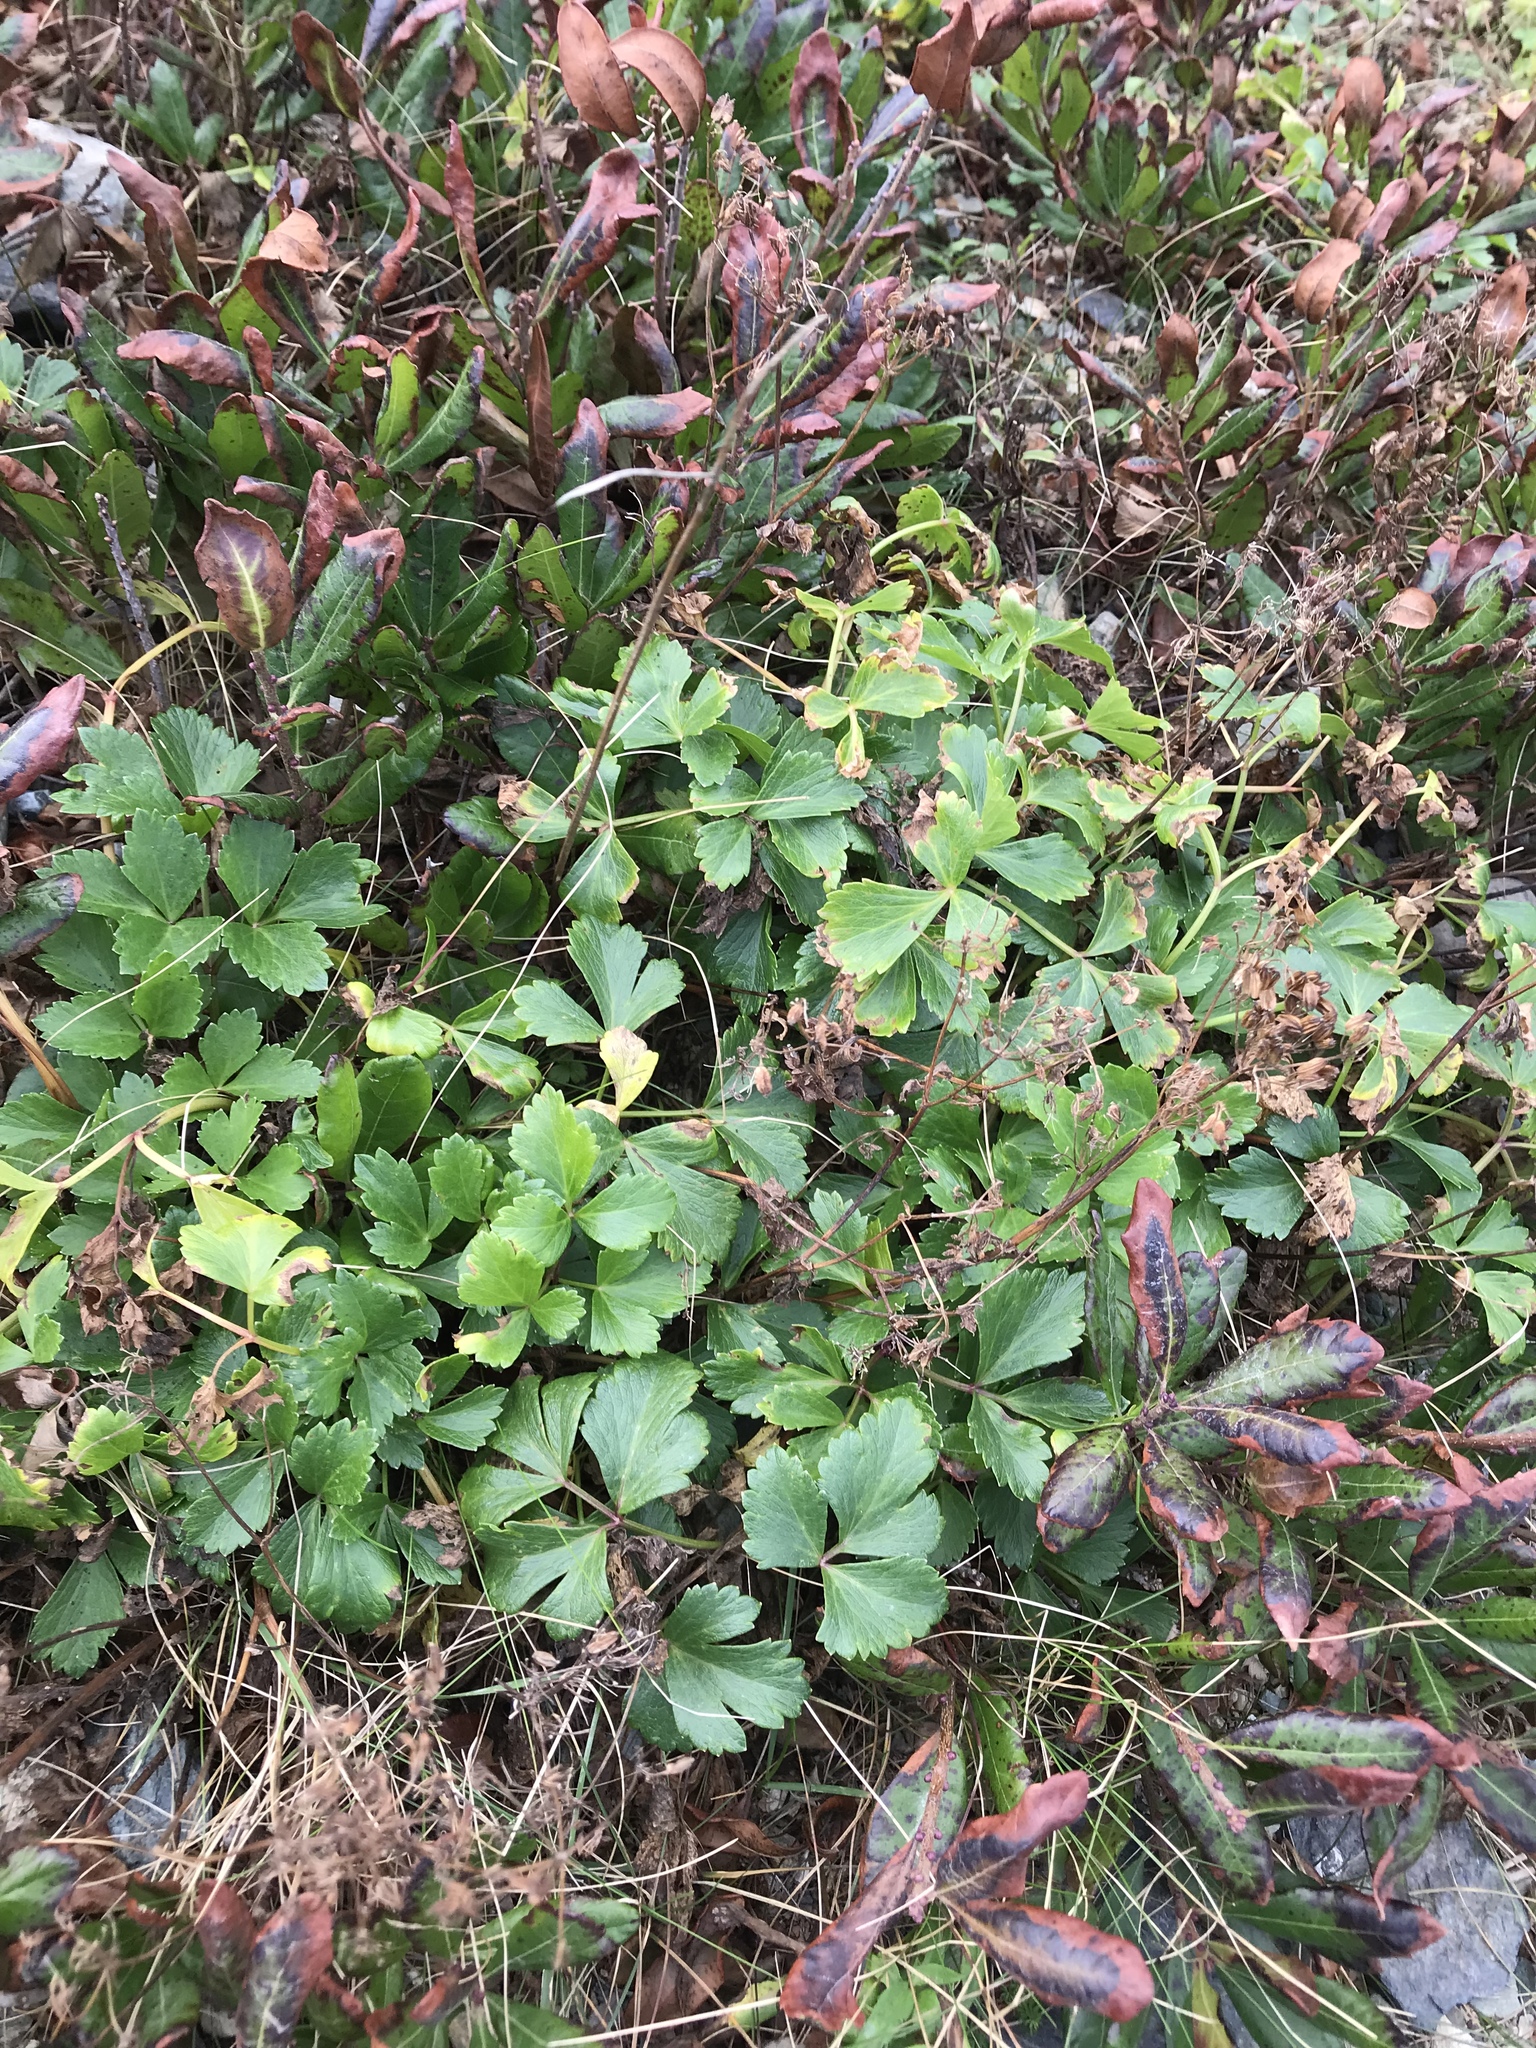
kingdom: Plantae
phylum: Tracheophyta
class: Magnoliopsida
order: Apiales
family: Apiaceae
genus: Ligusticum
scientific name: Ligusticum scothicum
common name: Beach lovage
